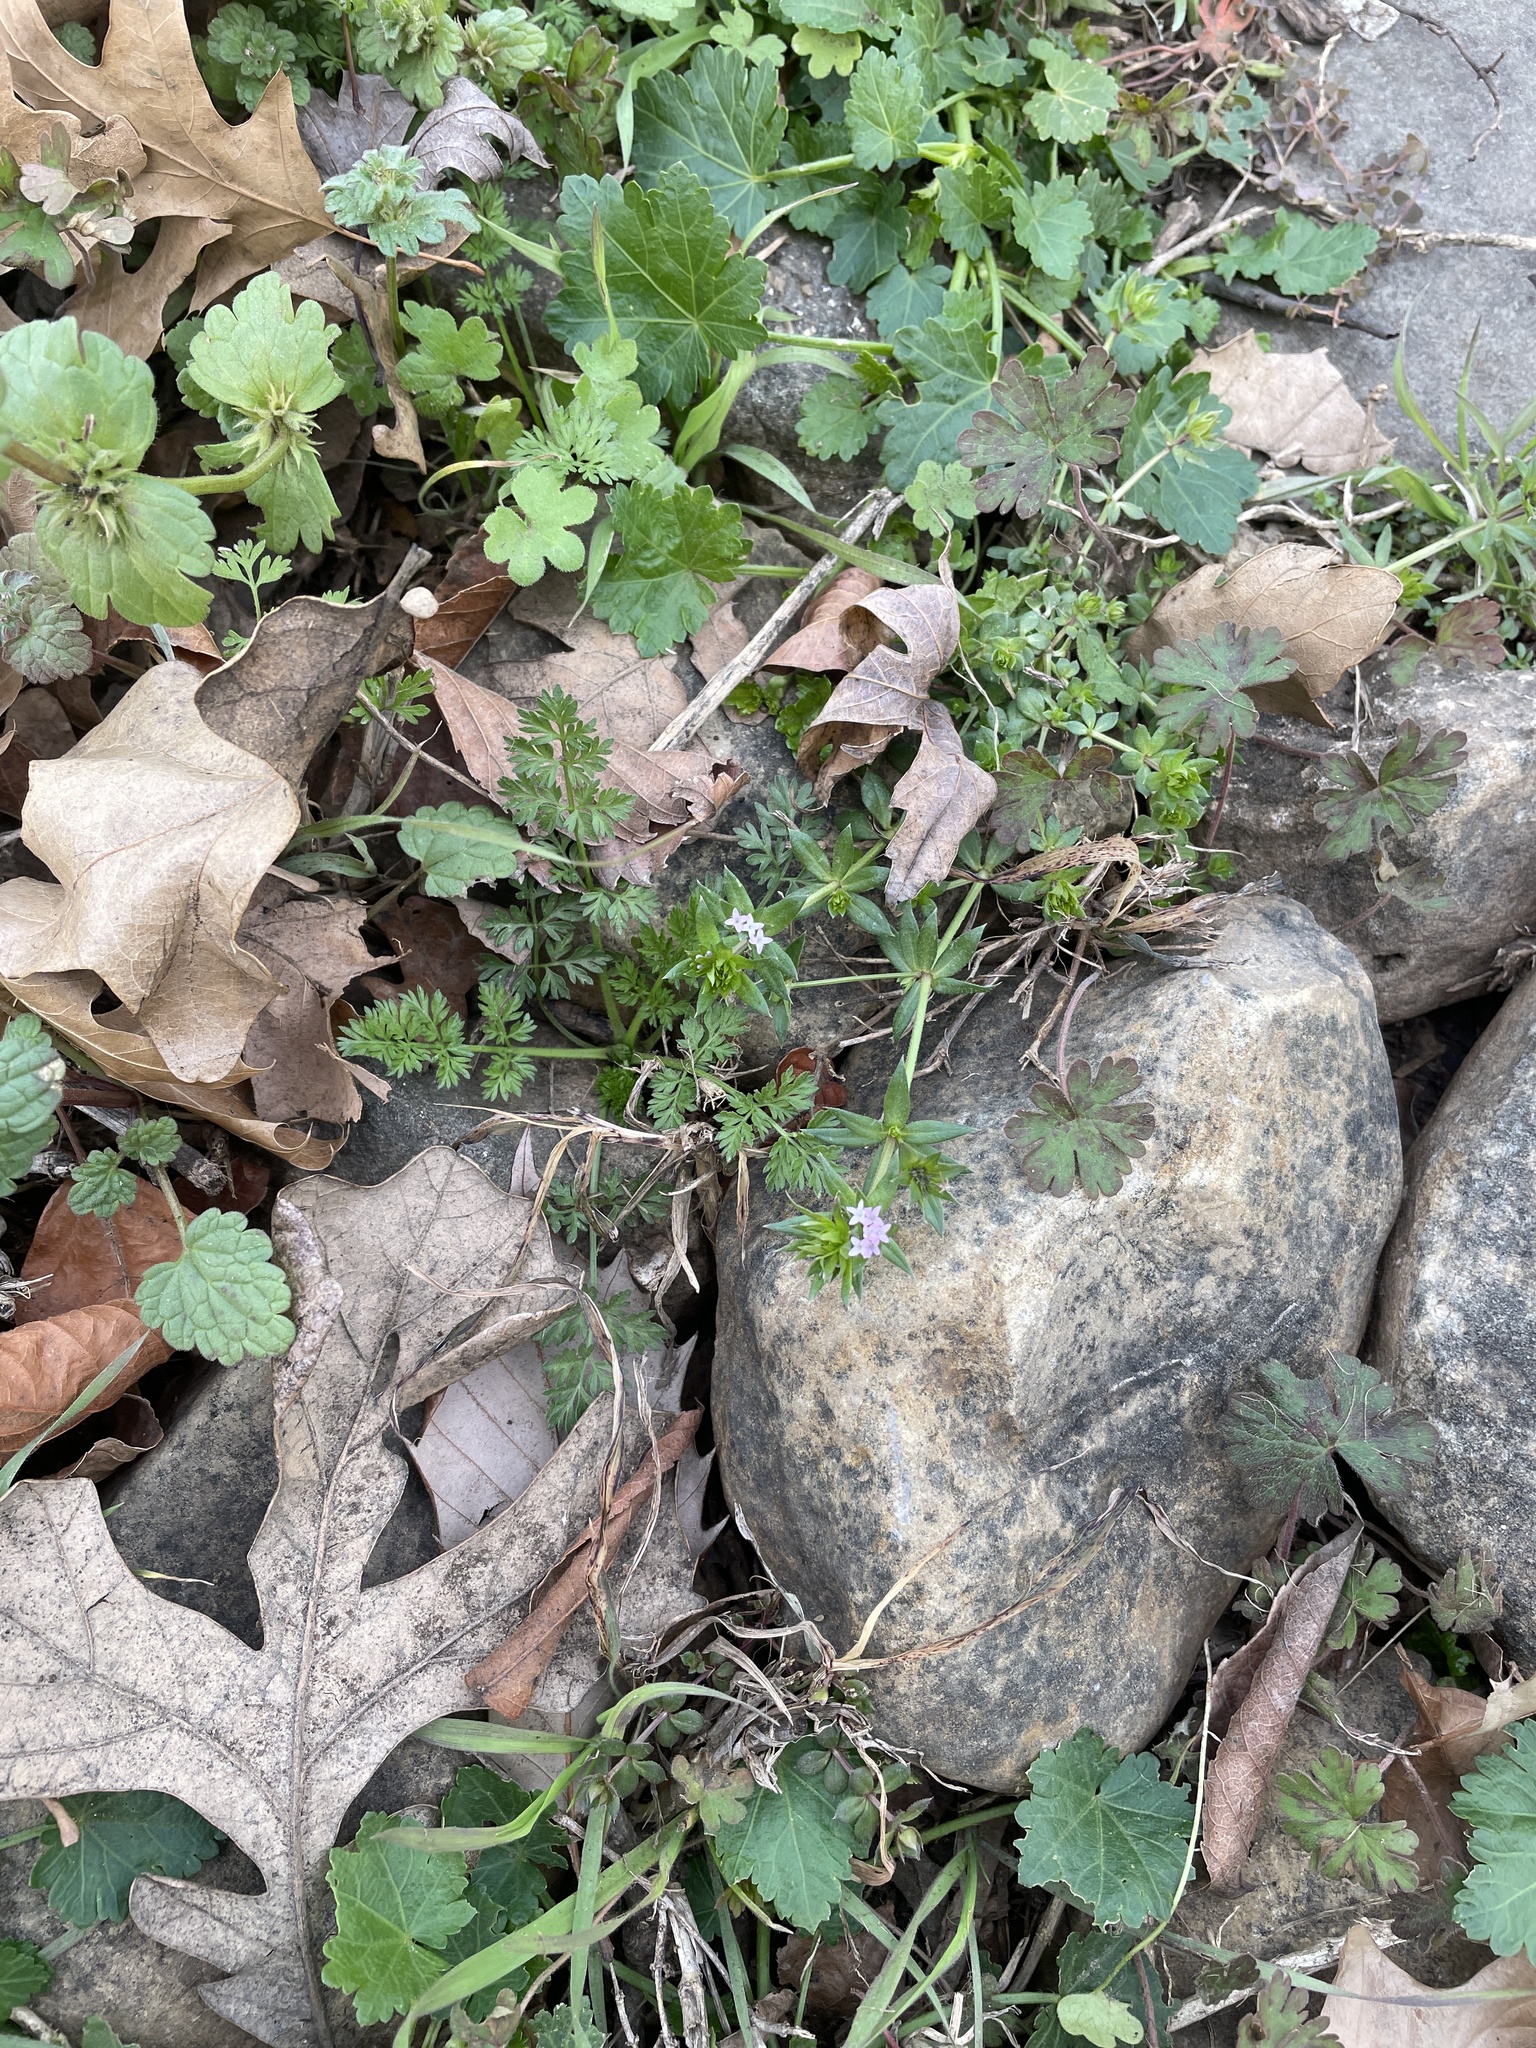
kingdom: Plantae
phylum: Tracheophyta
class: Magnoliopsida
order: Gentianales
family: Rubiaceae
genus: Sherardia
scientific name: Sherardia arvensis
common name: Field madder
